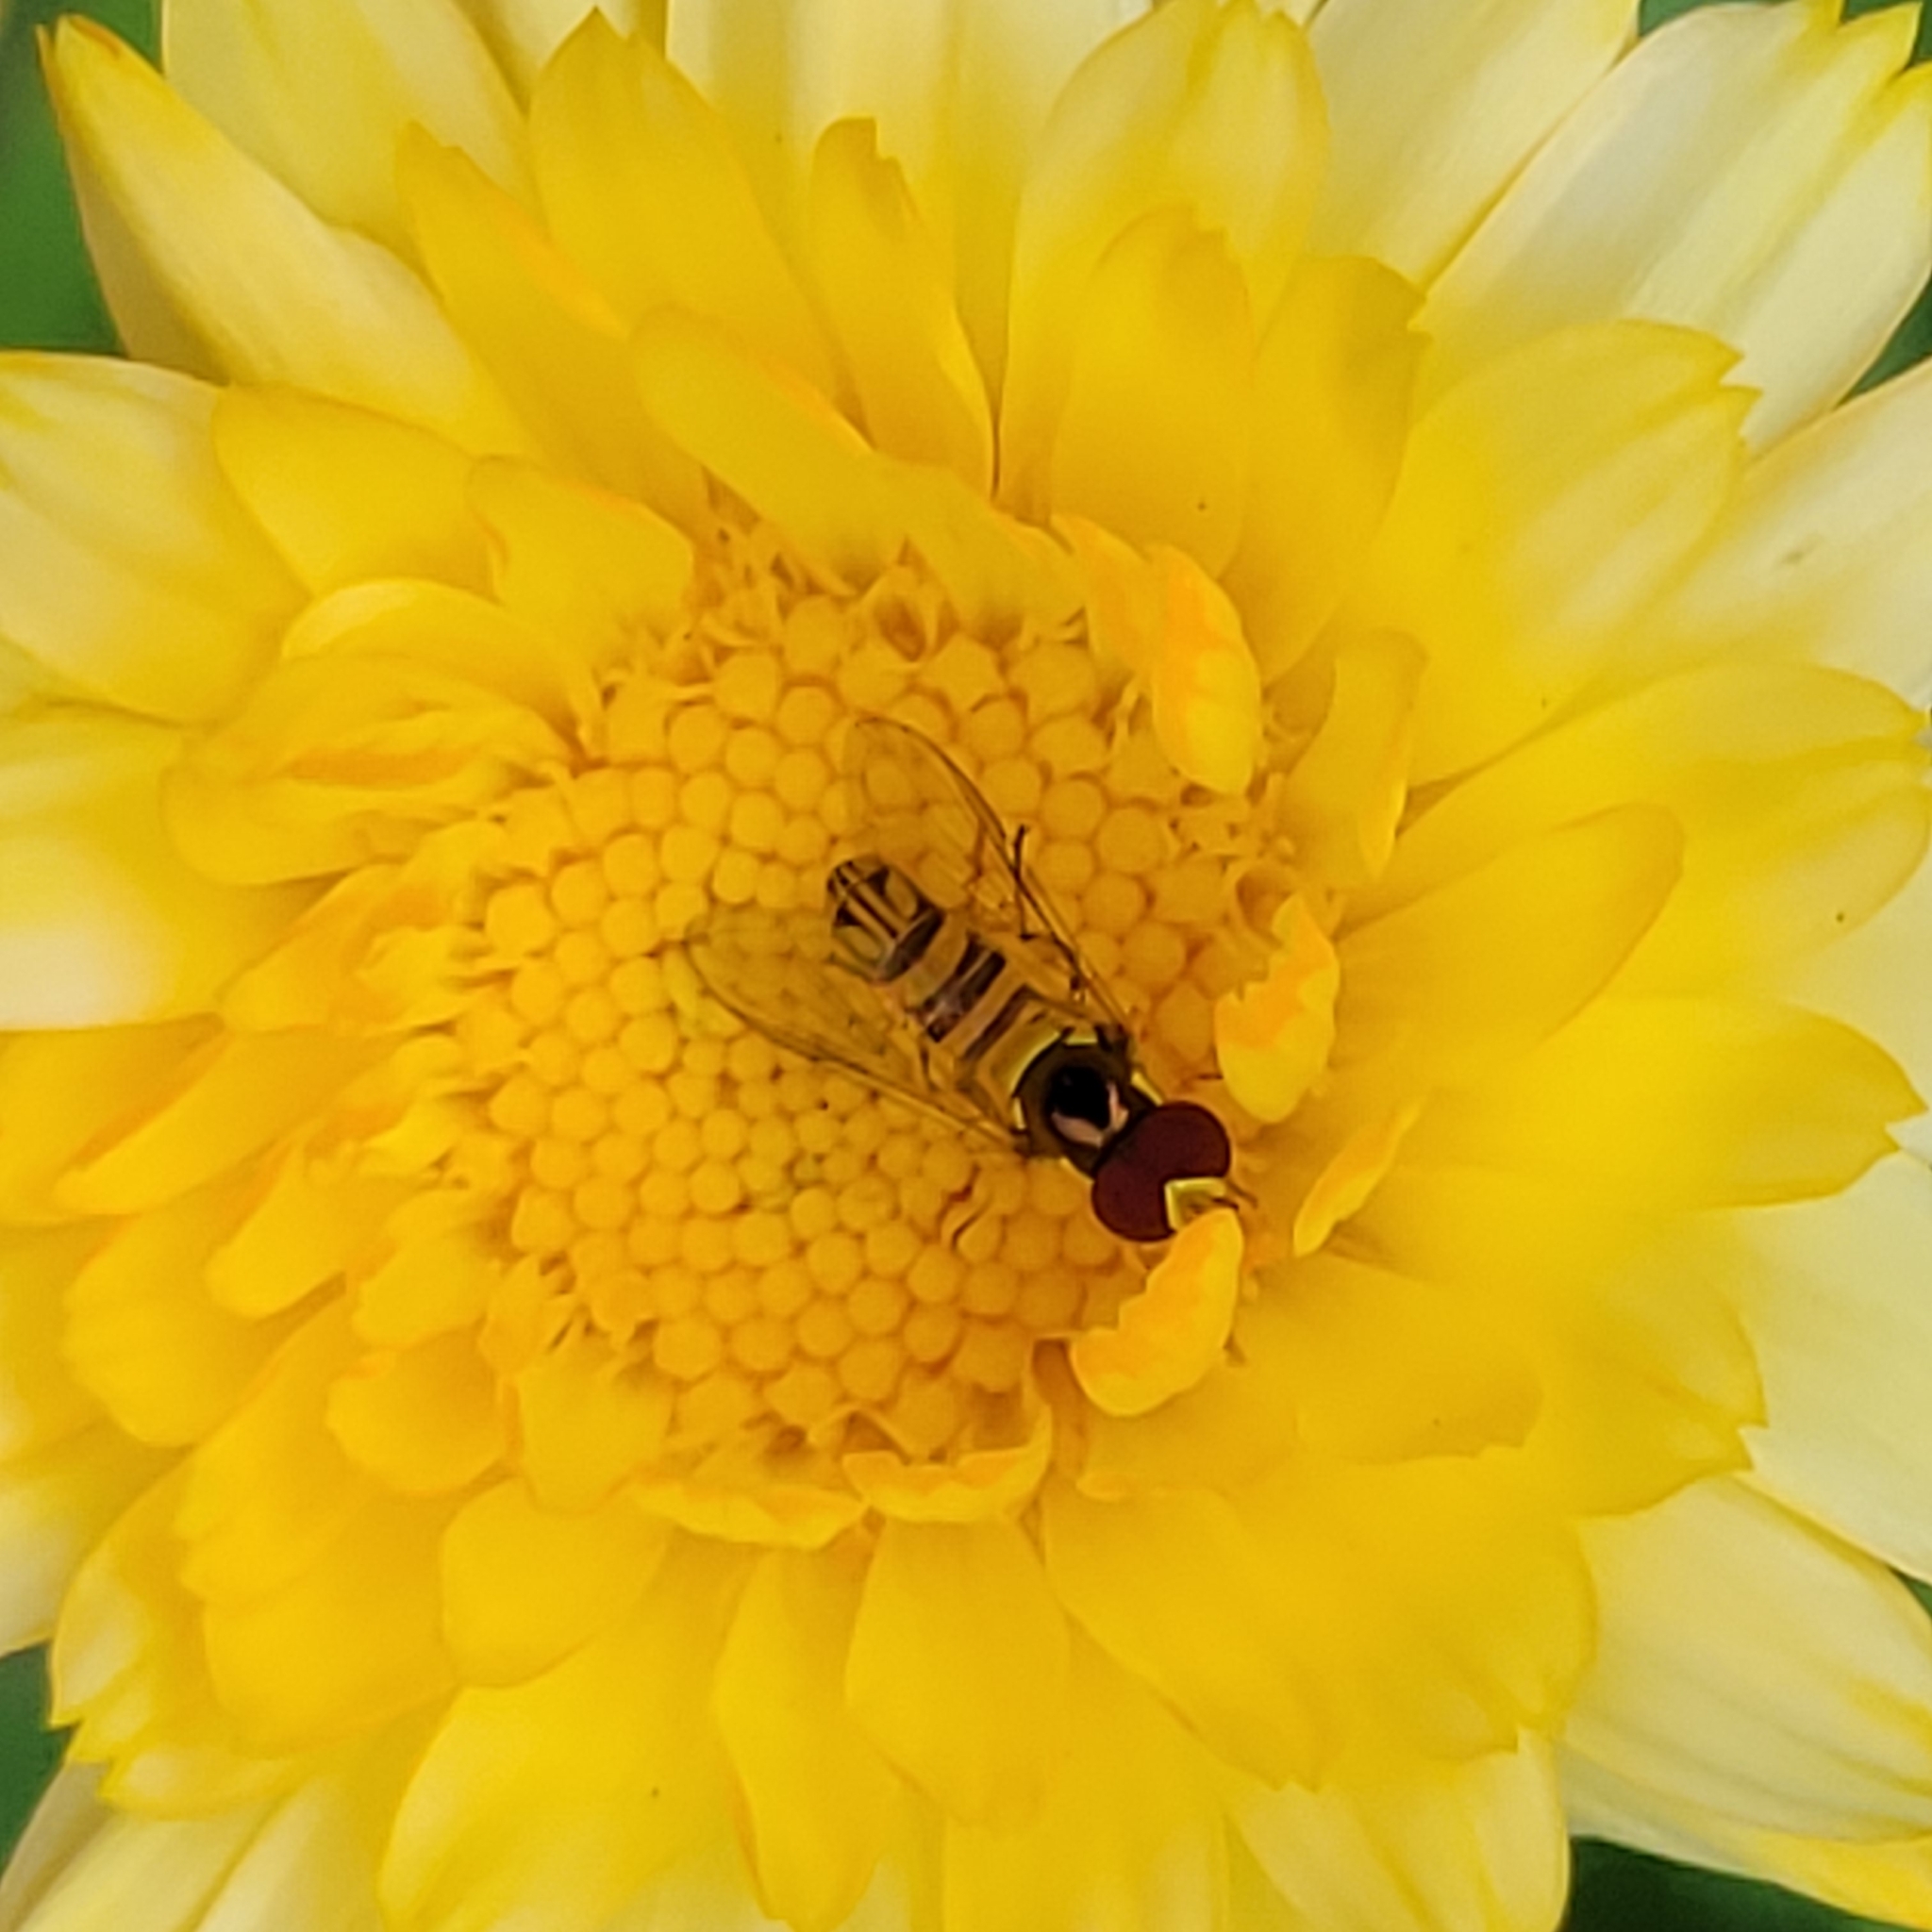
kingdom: Animalia
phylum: Arthropoda
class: Insecta
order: Diptera
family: Syrphidae
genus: Allograpta
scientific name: Allograpta obliqua
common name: Common oblique syrphid
